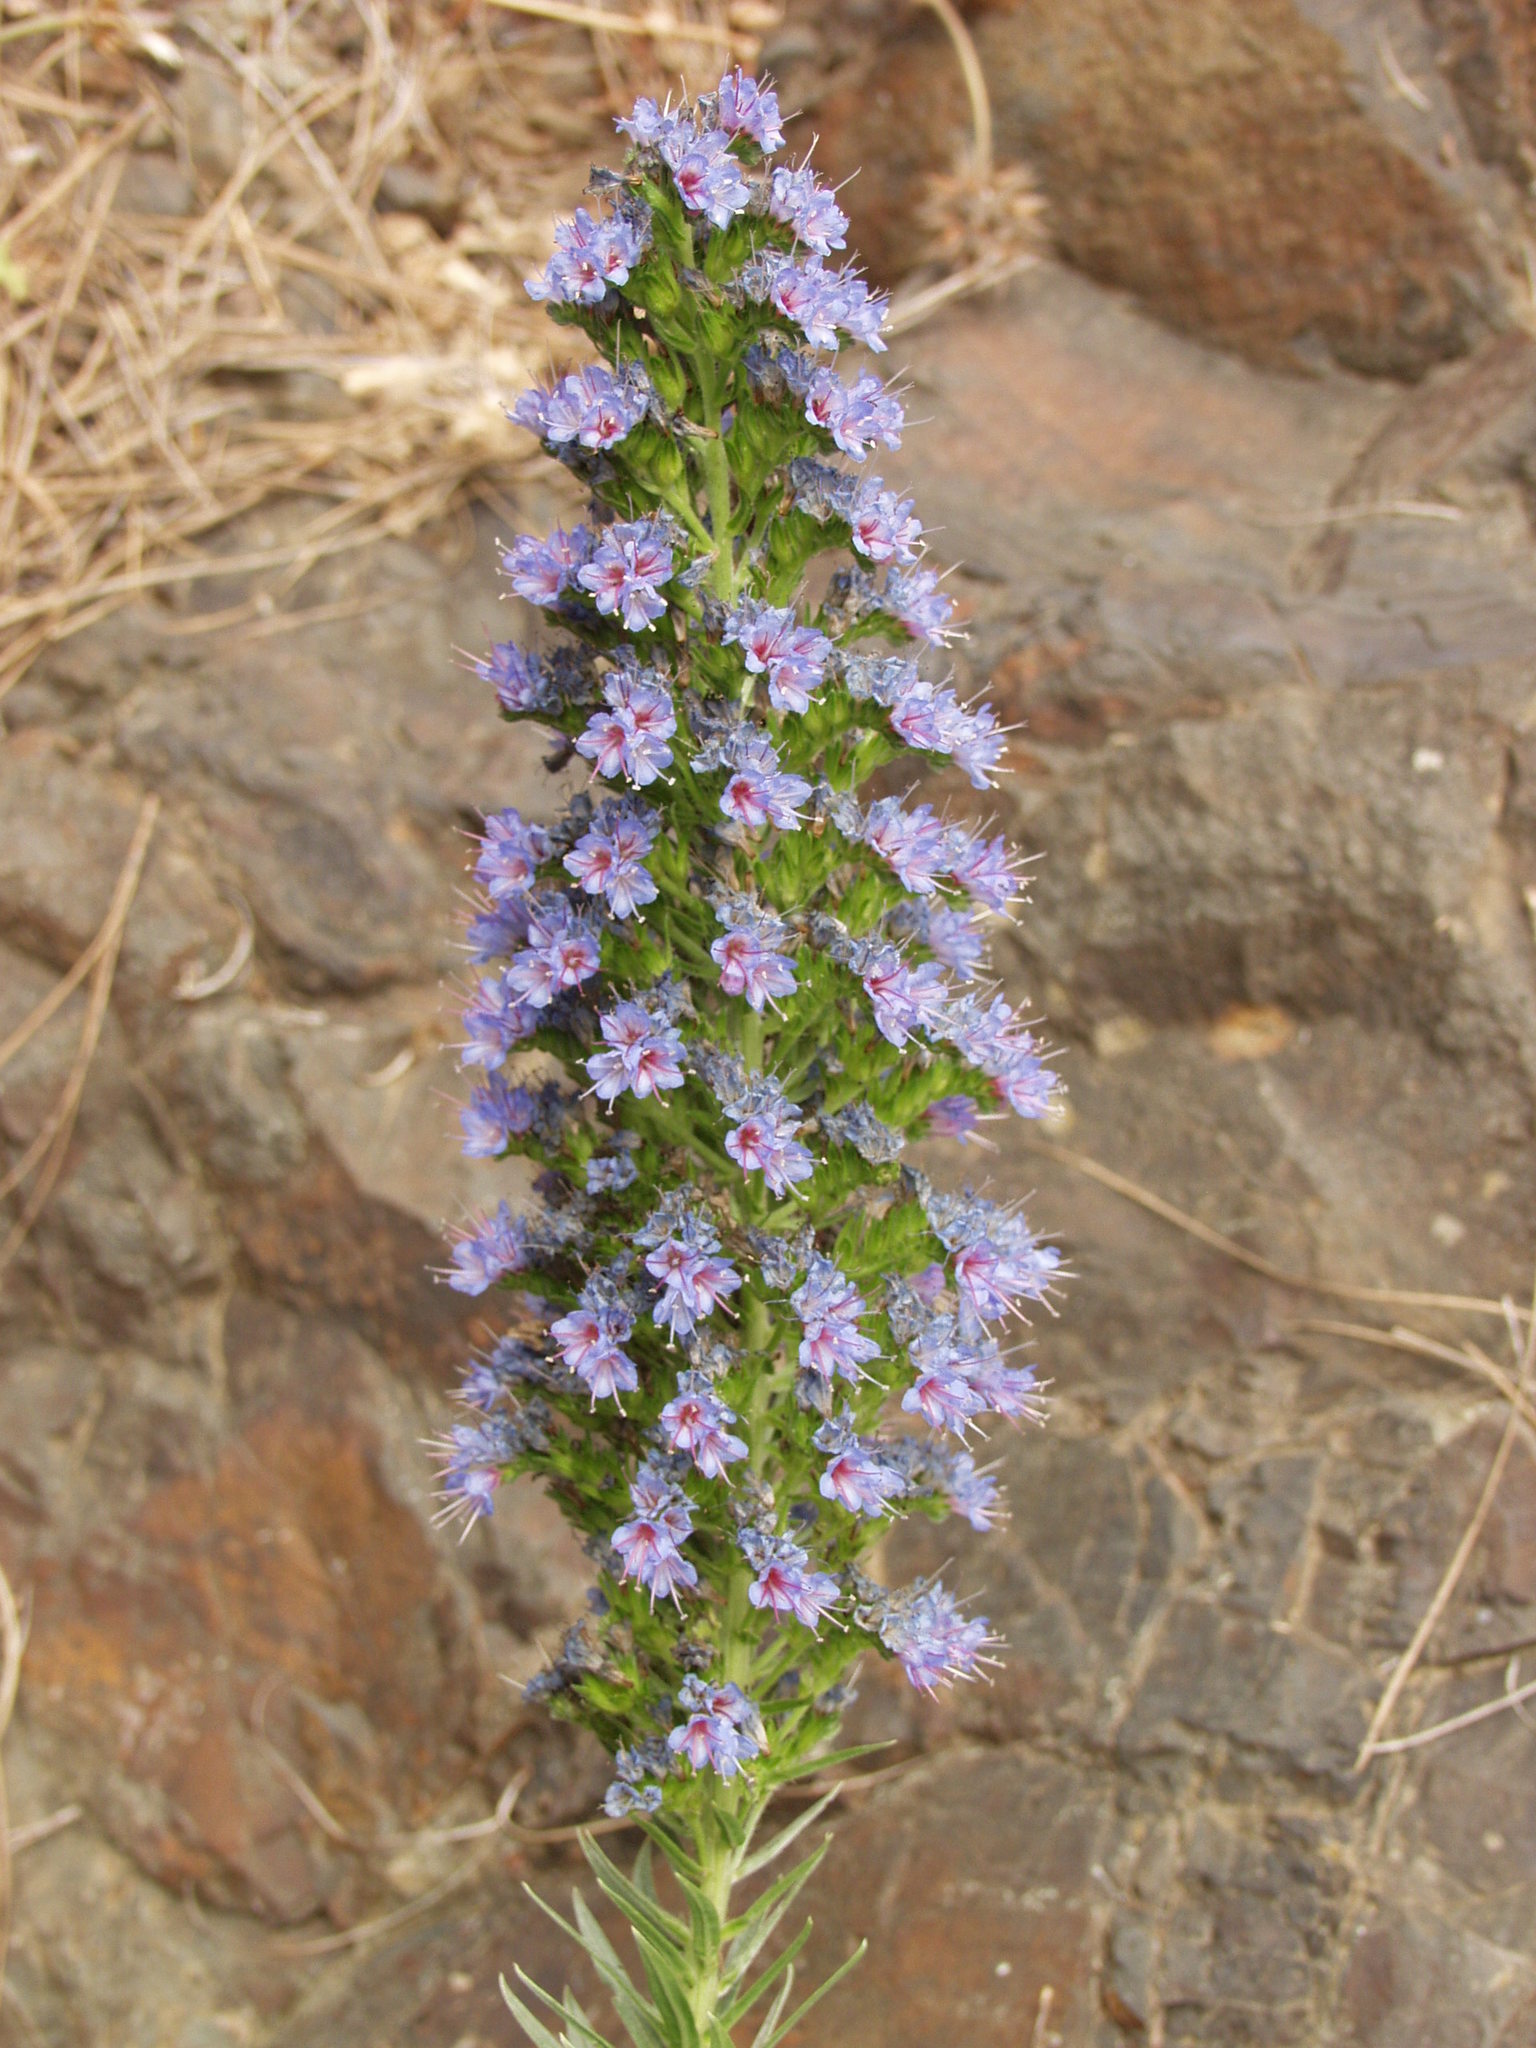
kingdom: Plantae
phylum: Tracheophyta
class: Magnoliopsida
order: Boraginales
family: Boraginaceae
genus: Echium
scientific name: Echium webbii
